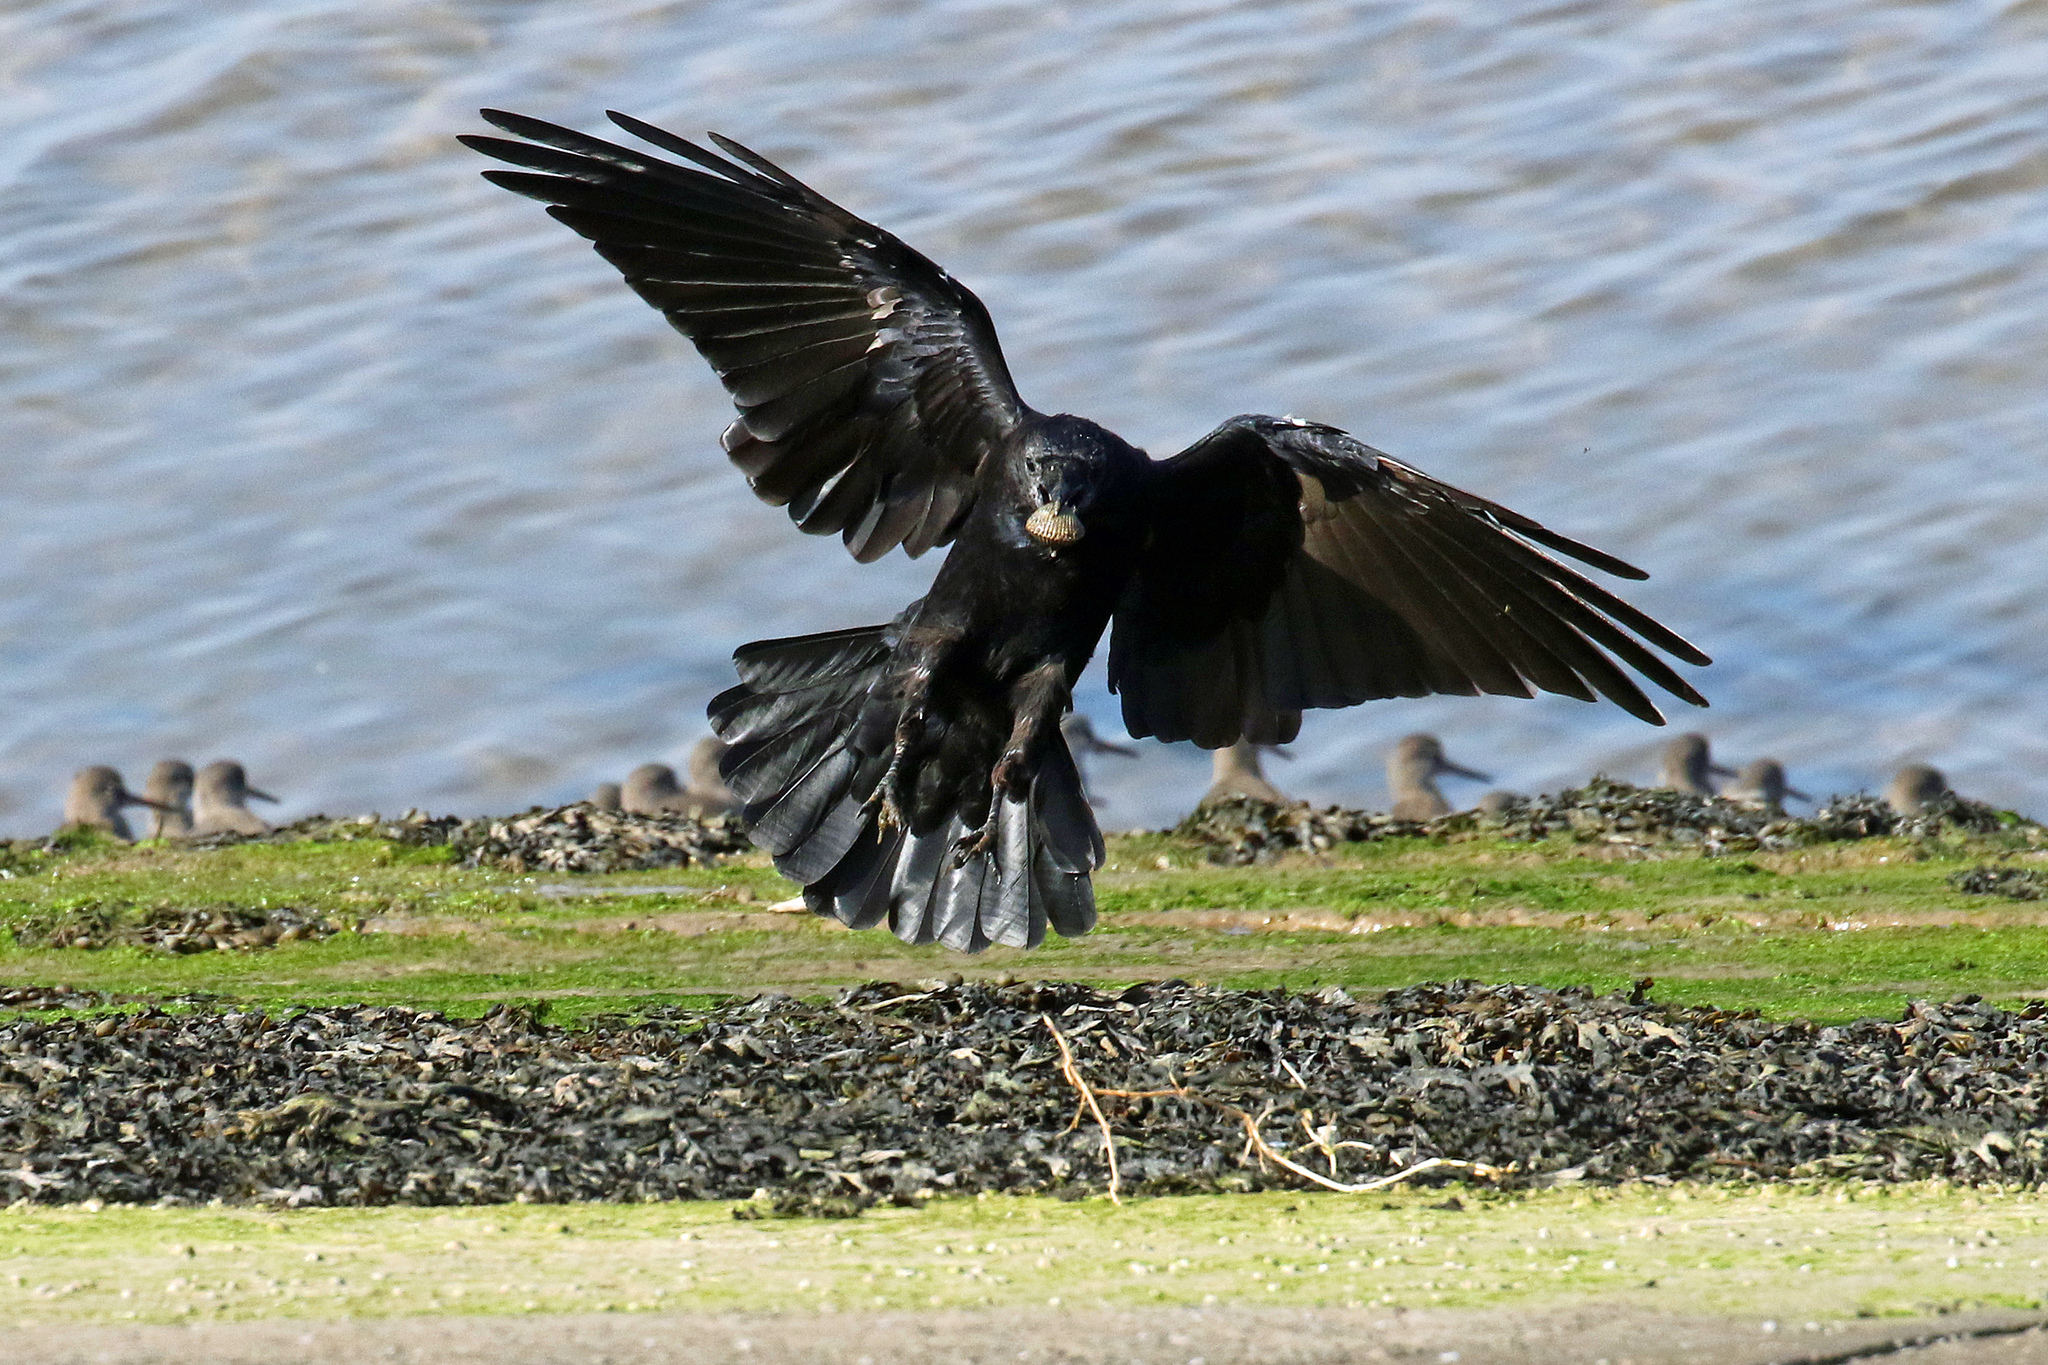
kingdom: Animalia
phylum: Chordata
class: Aves
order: Passeriformes
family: Corvidae
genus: Corvus
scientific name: Corvus corax
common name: Common raven
